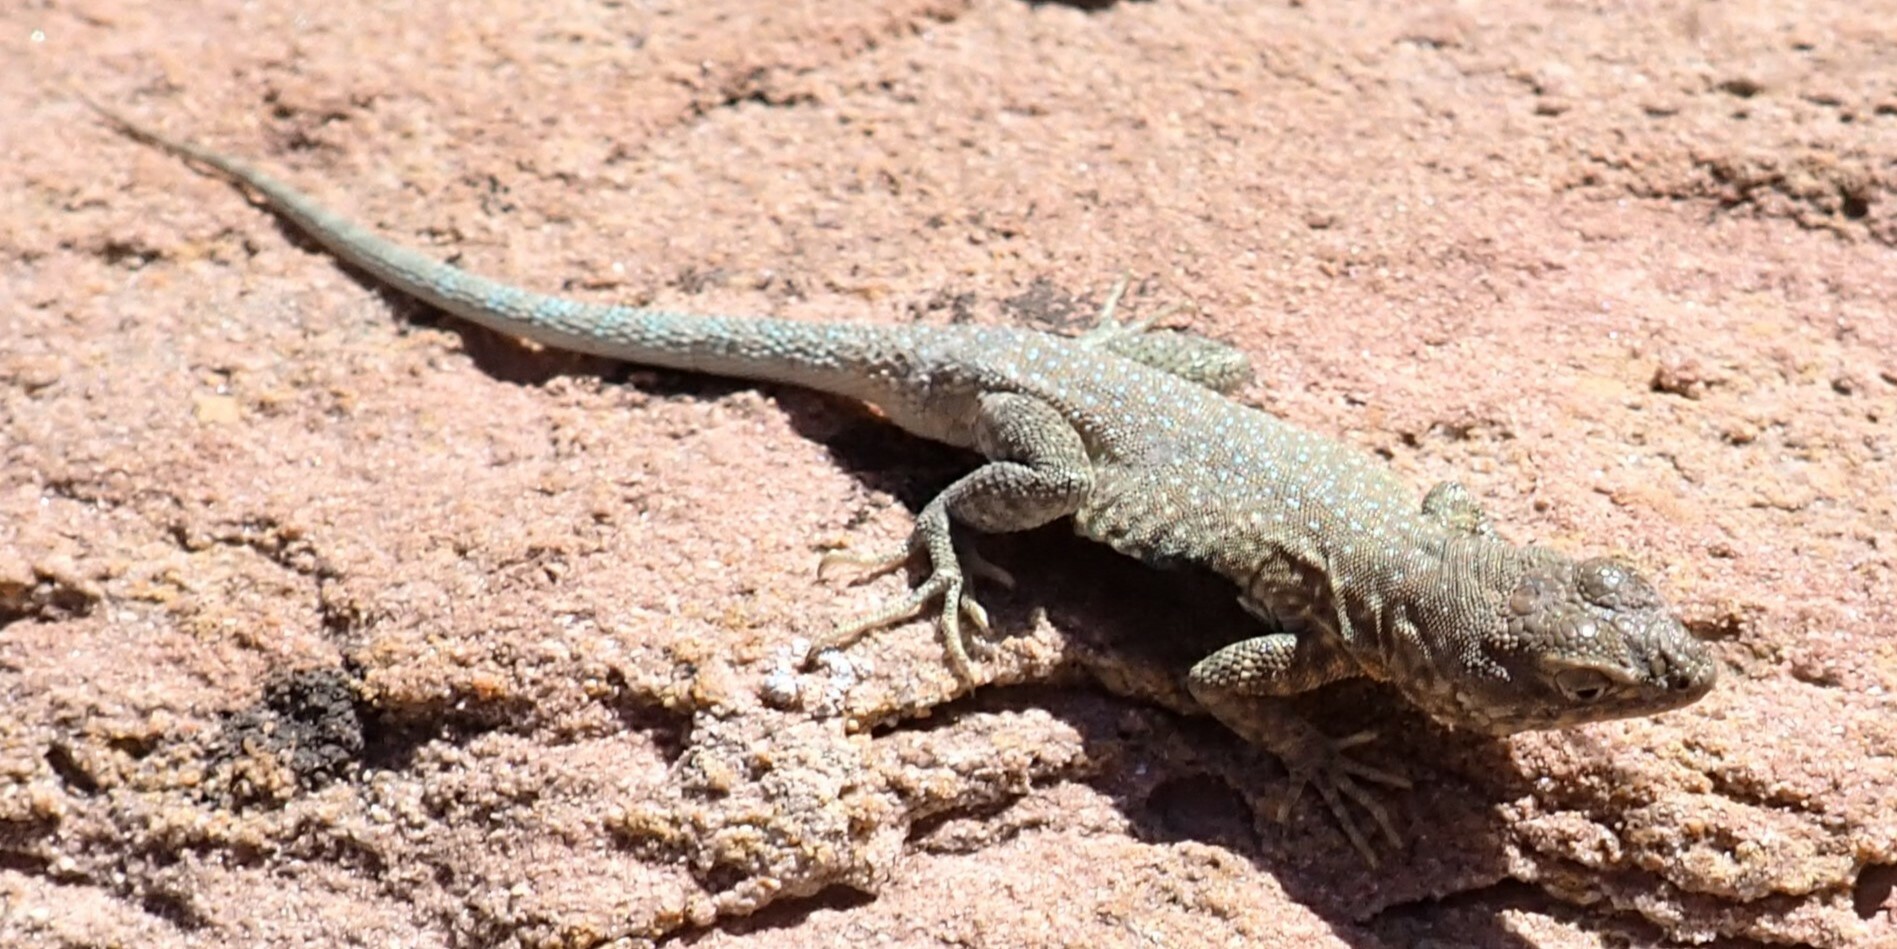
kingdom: Animalia
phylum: Chordata
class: Squamata
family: Phrynosomatidae
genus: Uta
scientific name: Uta stansburiana
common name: Side-blotched lizard
